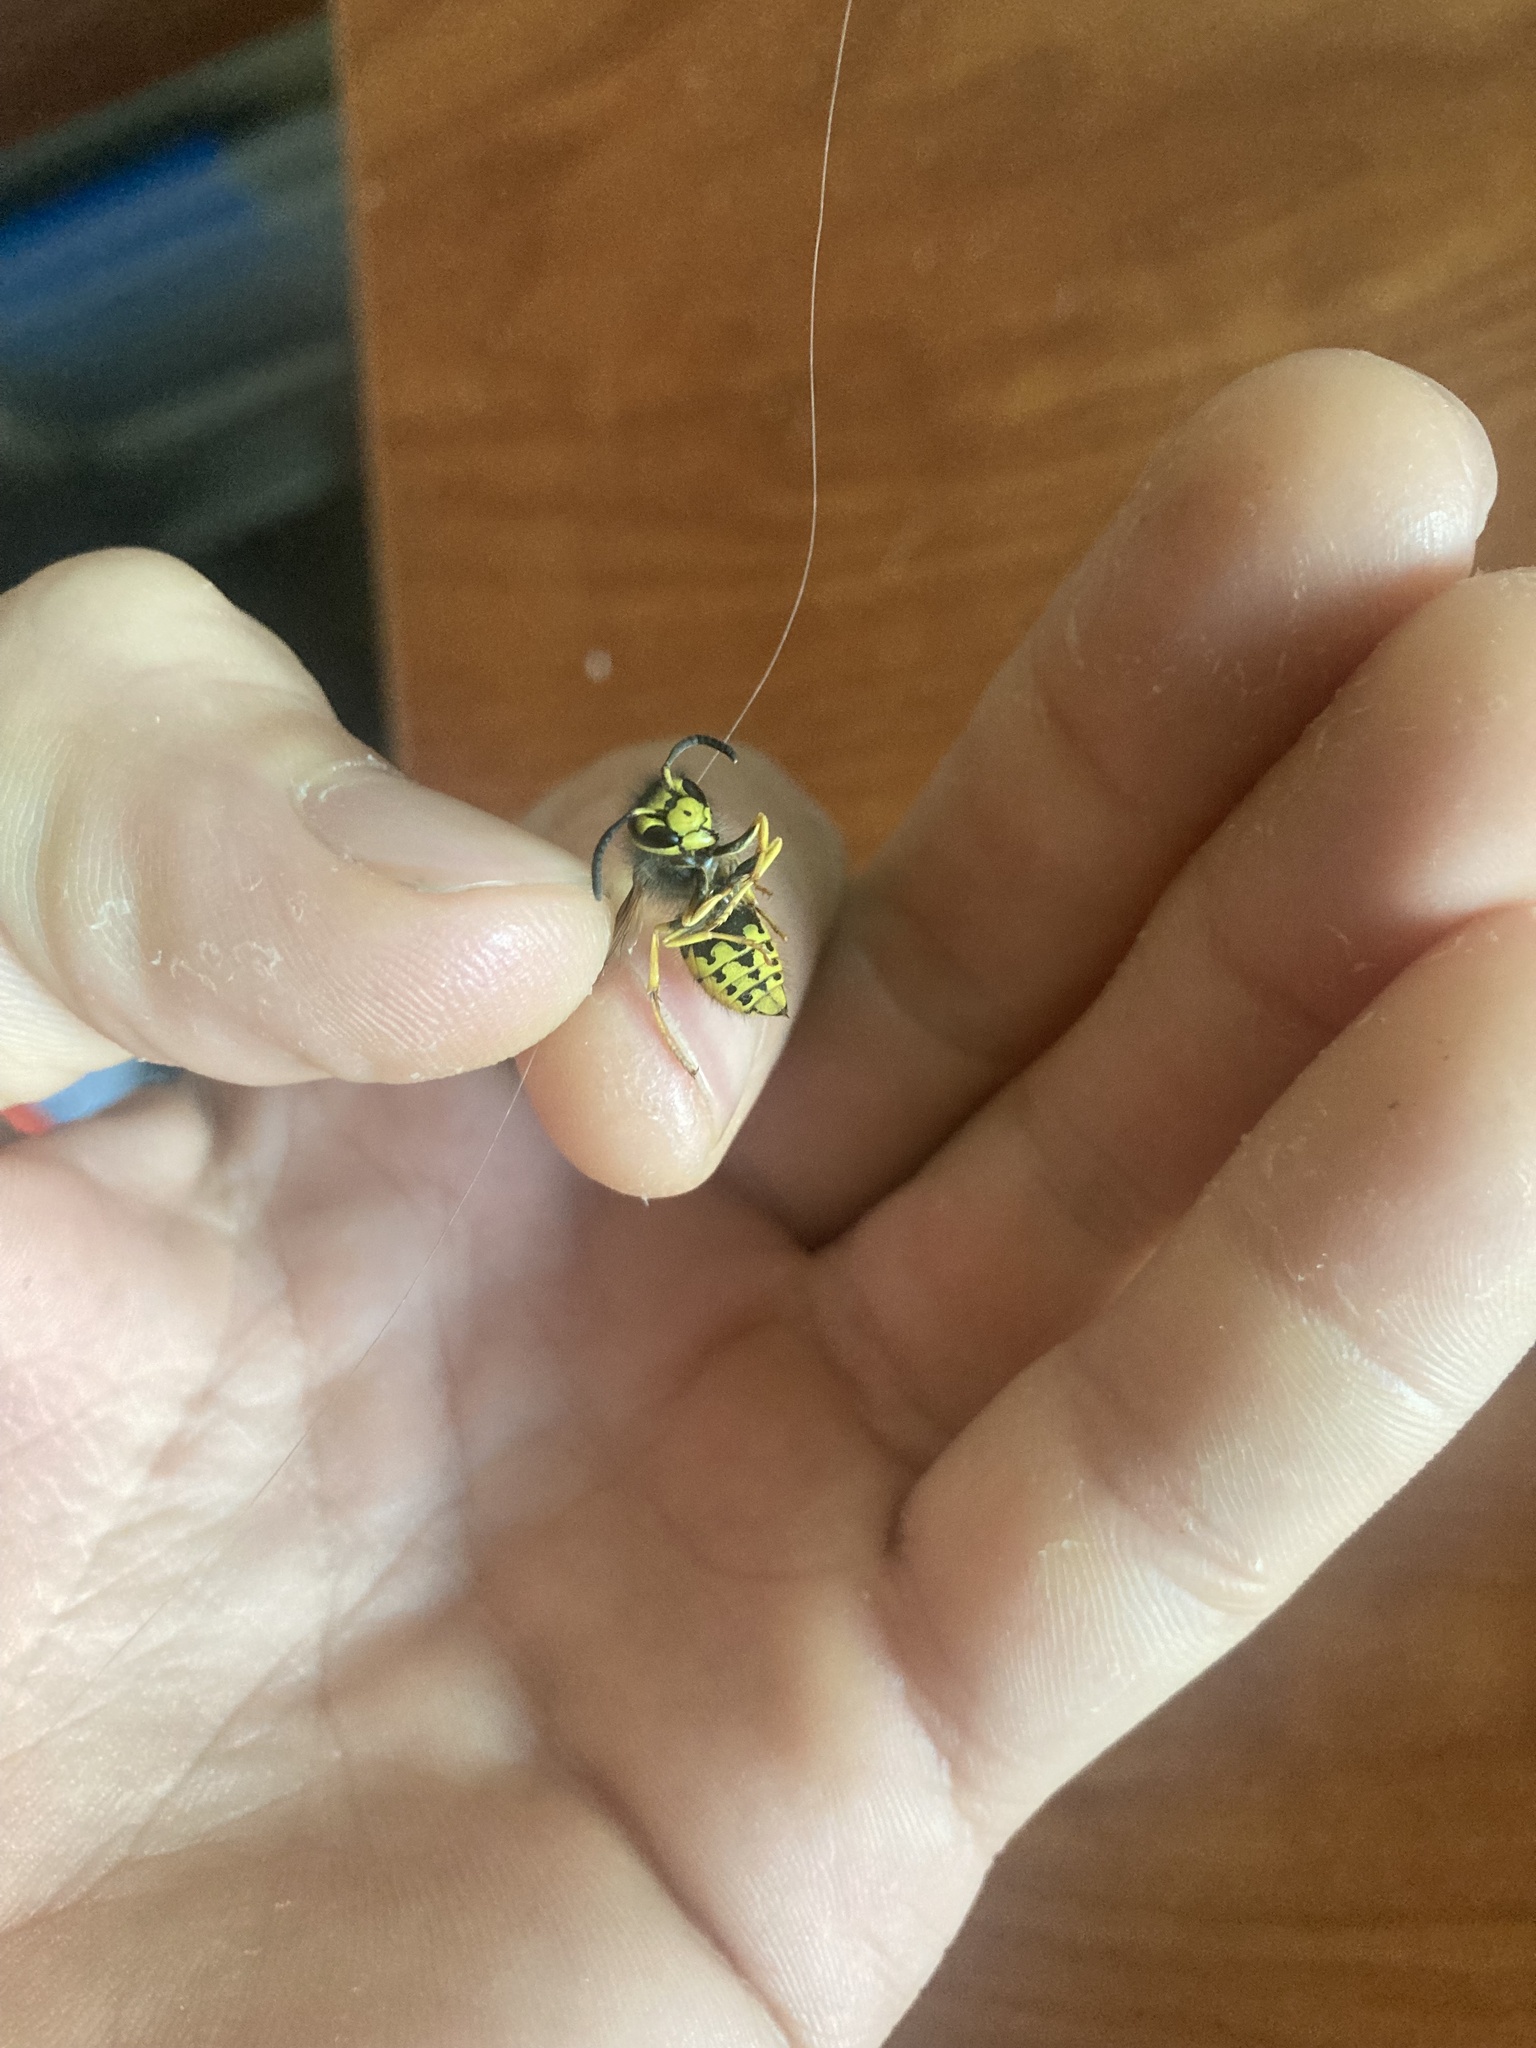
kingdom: Animalia
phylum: Arthropoda
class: Insecta
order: Hymenoptera
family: Vespidae
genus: Vespula
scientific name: Vespula pensylvanica
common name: Western yellowjacket
